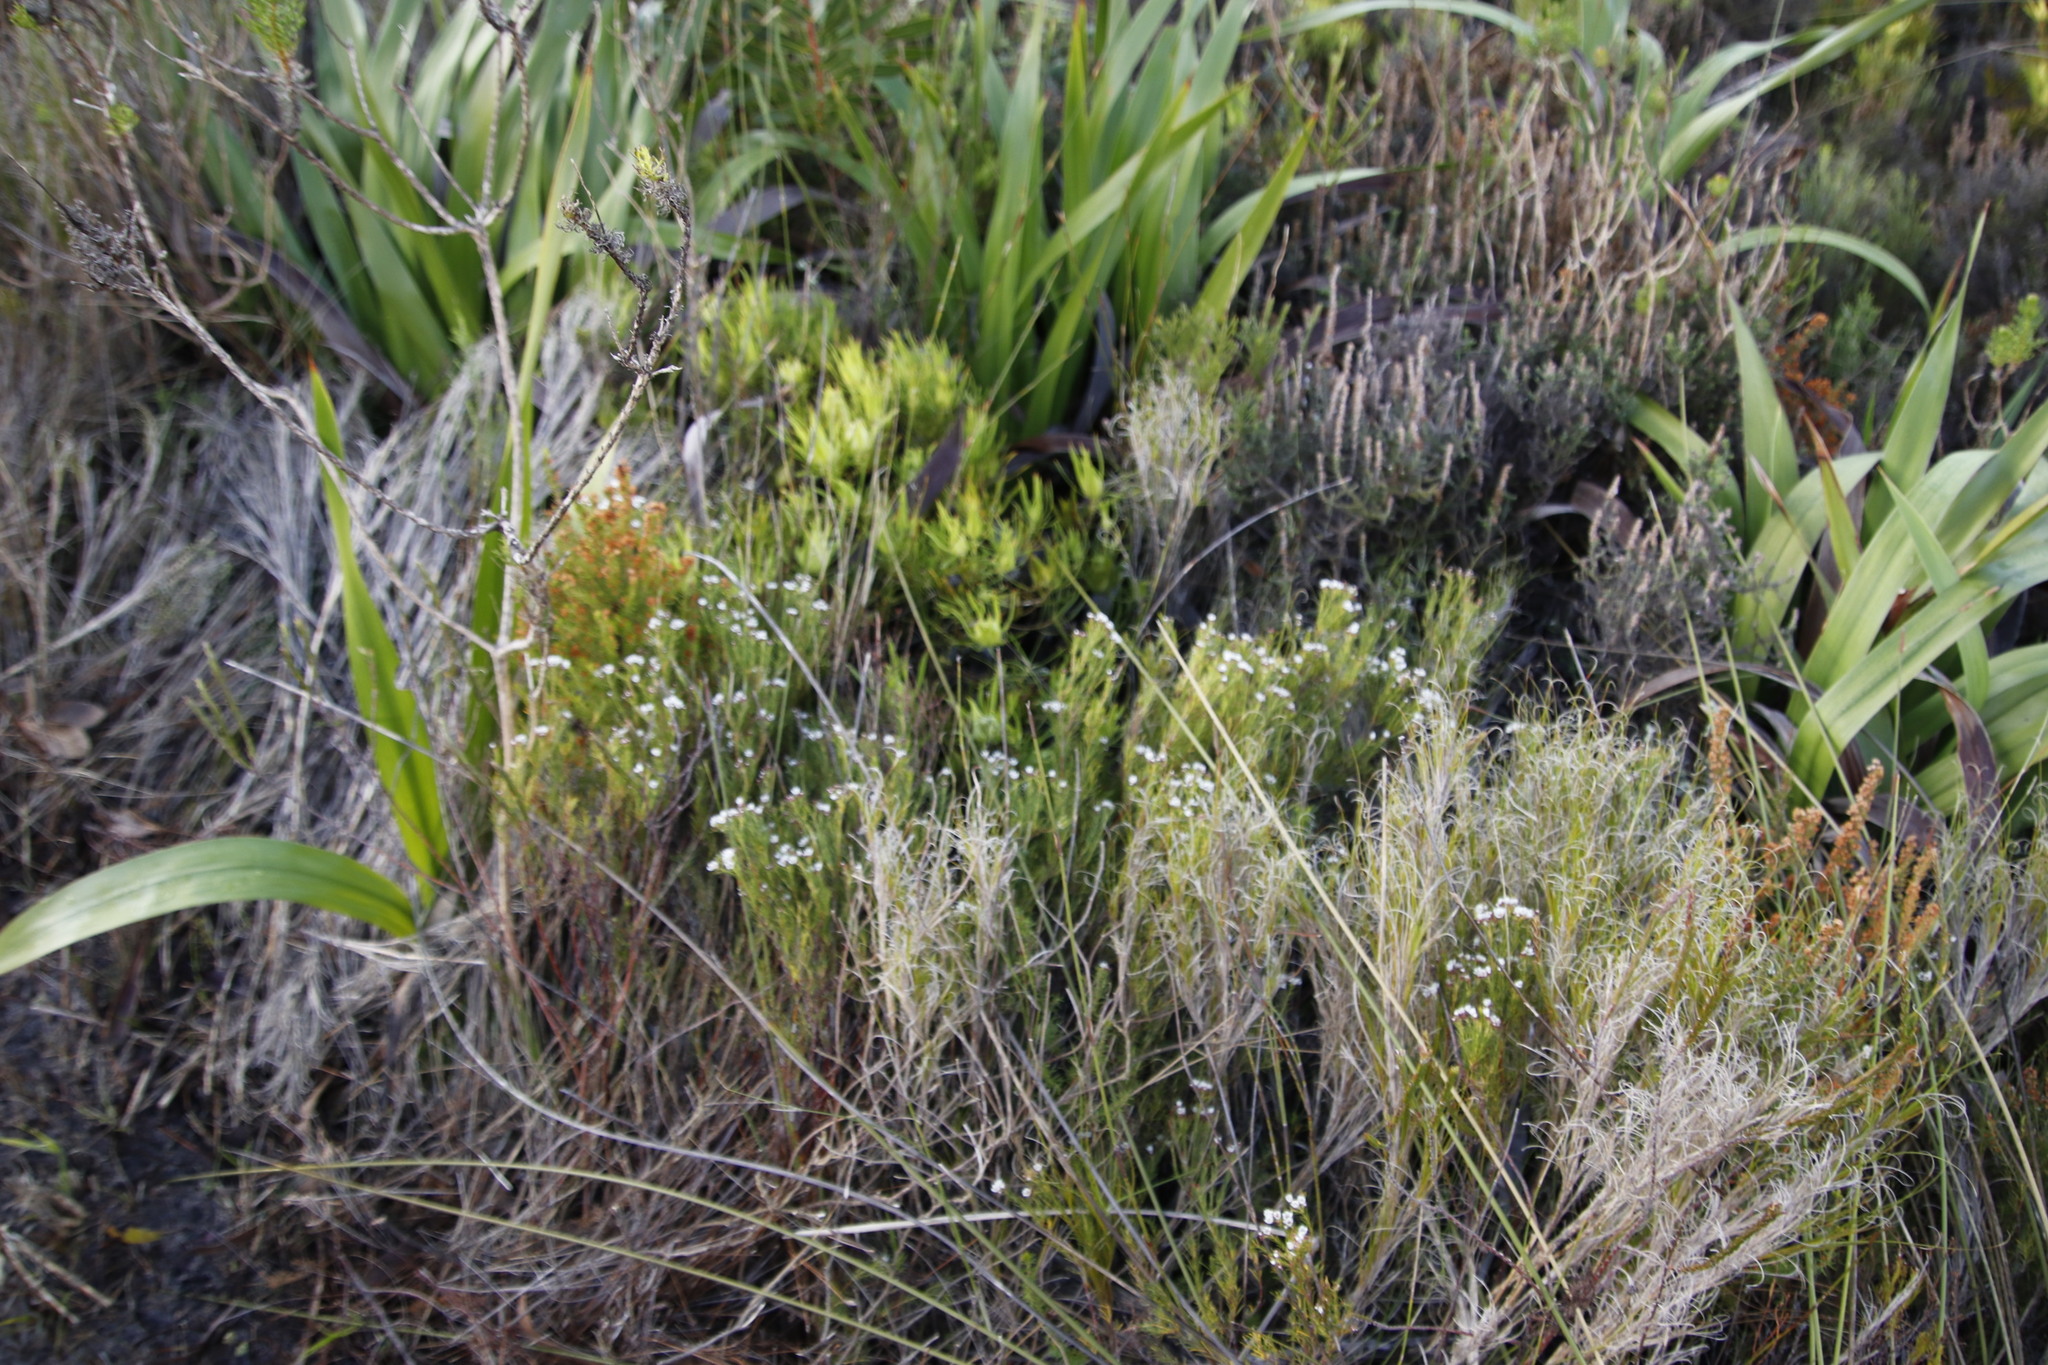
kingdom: Plantae
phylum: Tracheophyta
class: Magnoliopsida
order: Sapindales
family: Rutaceae
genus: Diosma
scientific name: Diosma hirsuta
